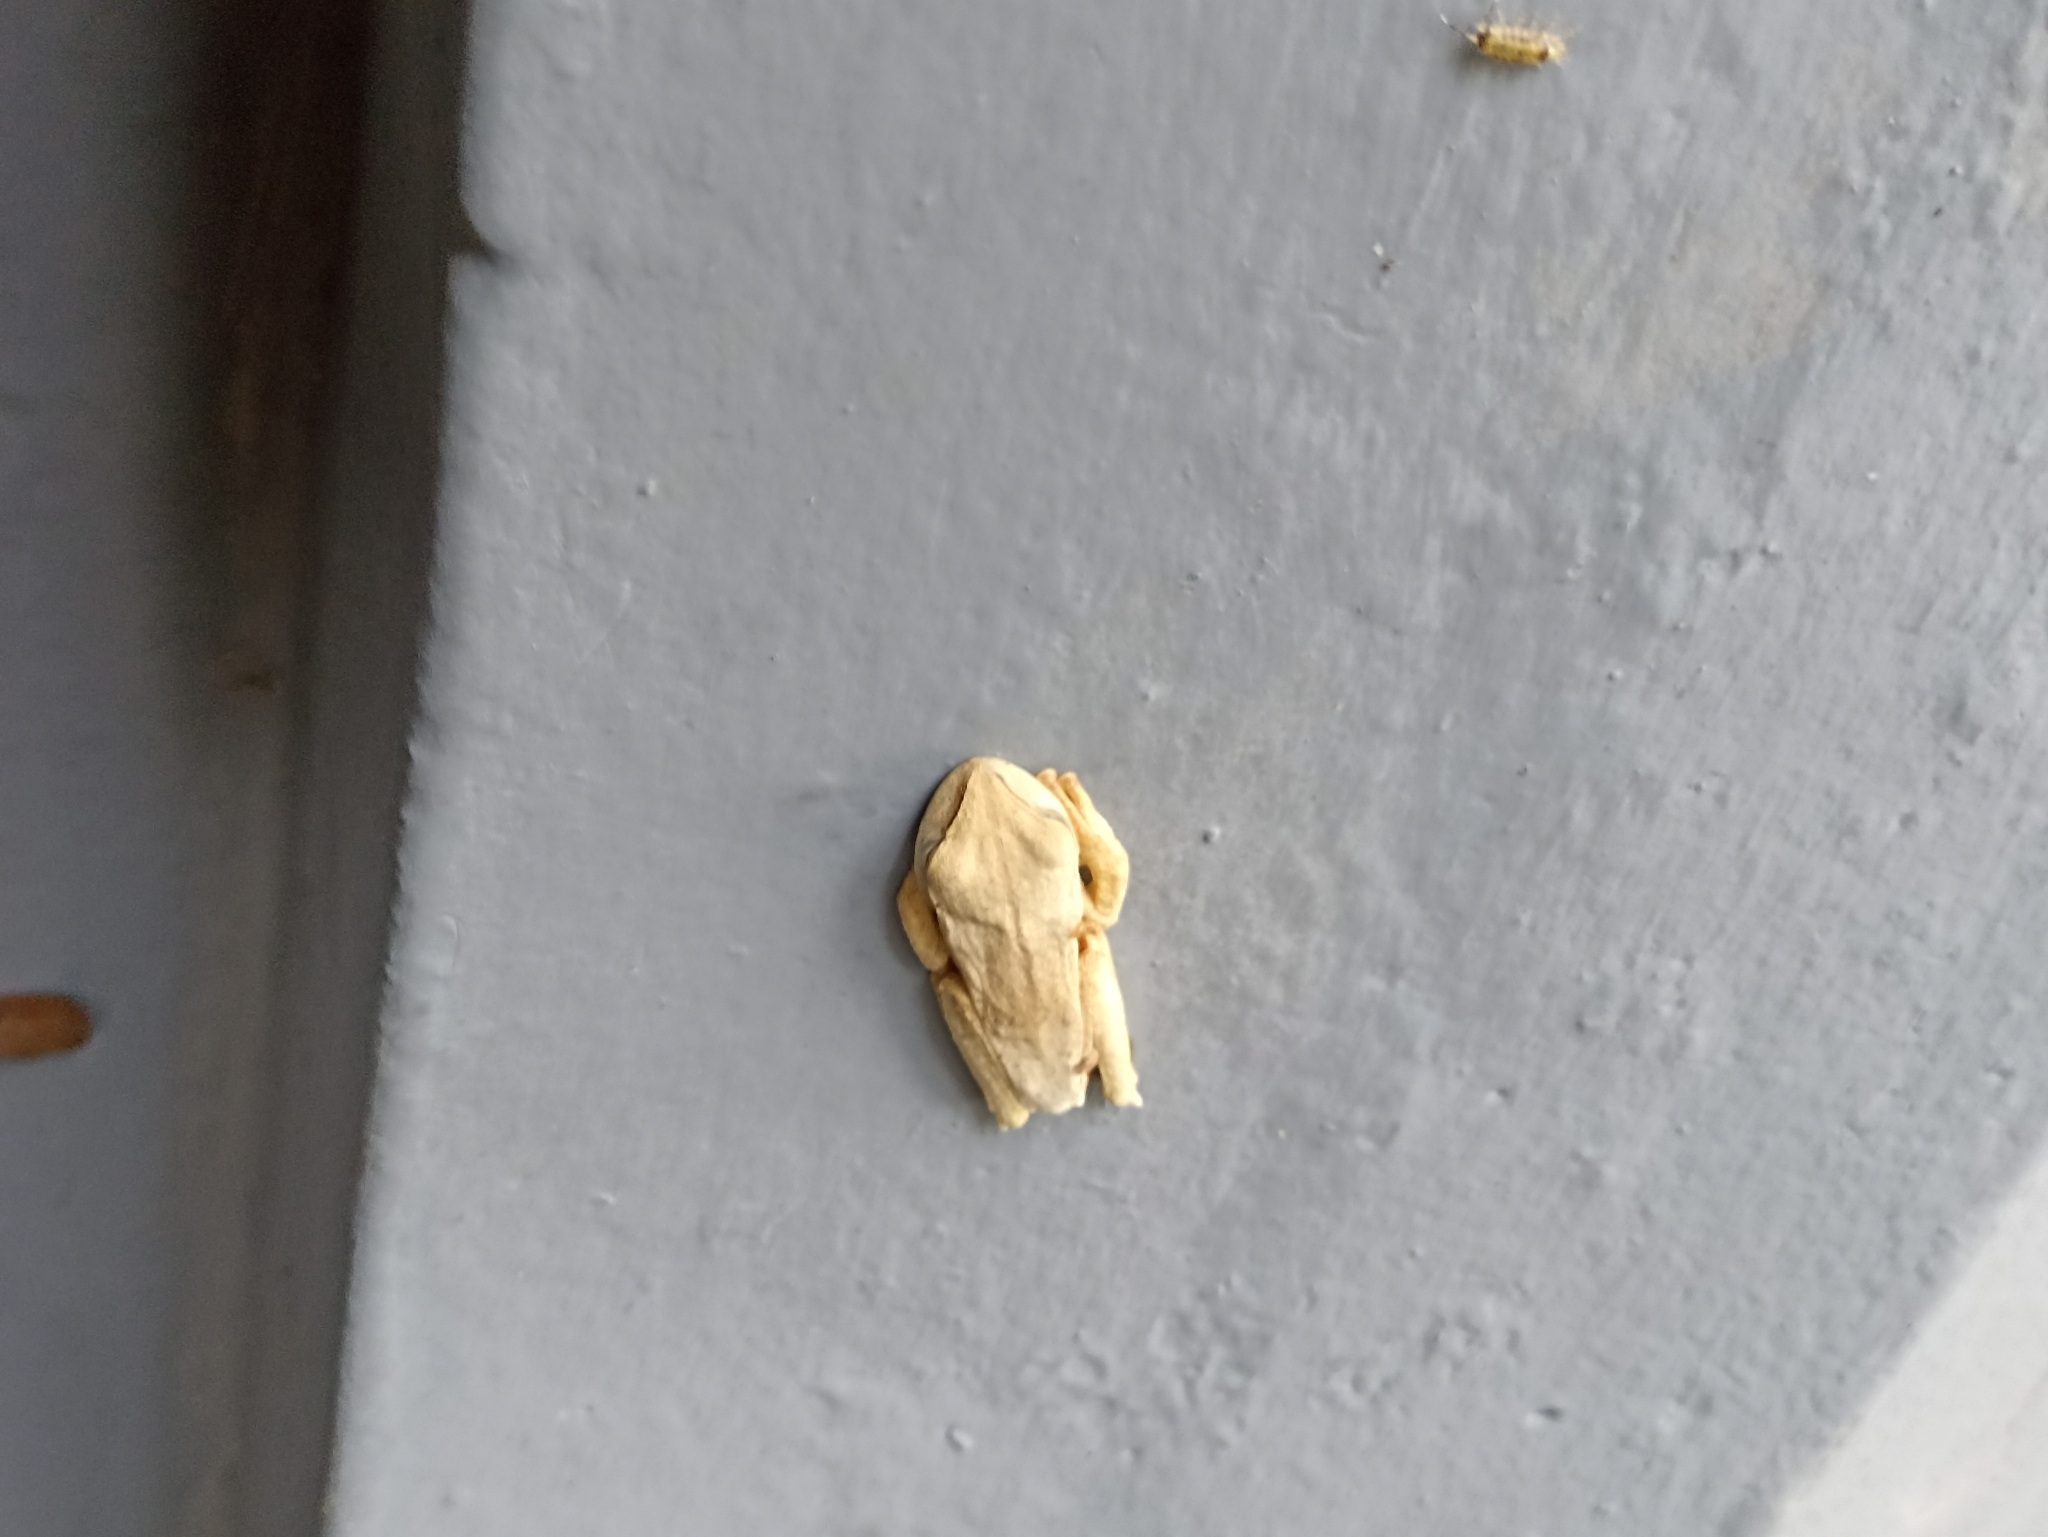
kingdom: Animalia
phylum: Chordata
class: Amphibia
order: Anura
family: Hylidae
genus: Boana
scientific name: Boana bischoffi
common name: Bischoff's treefrog
